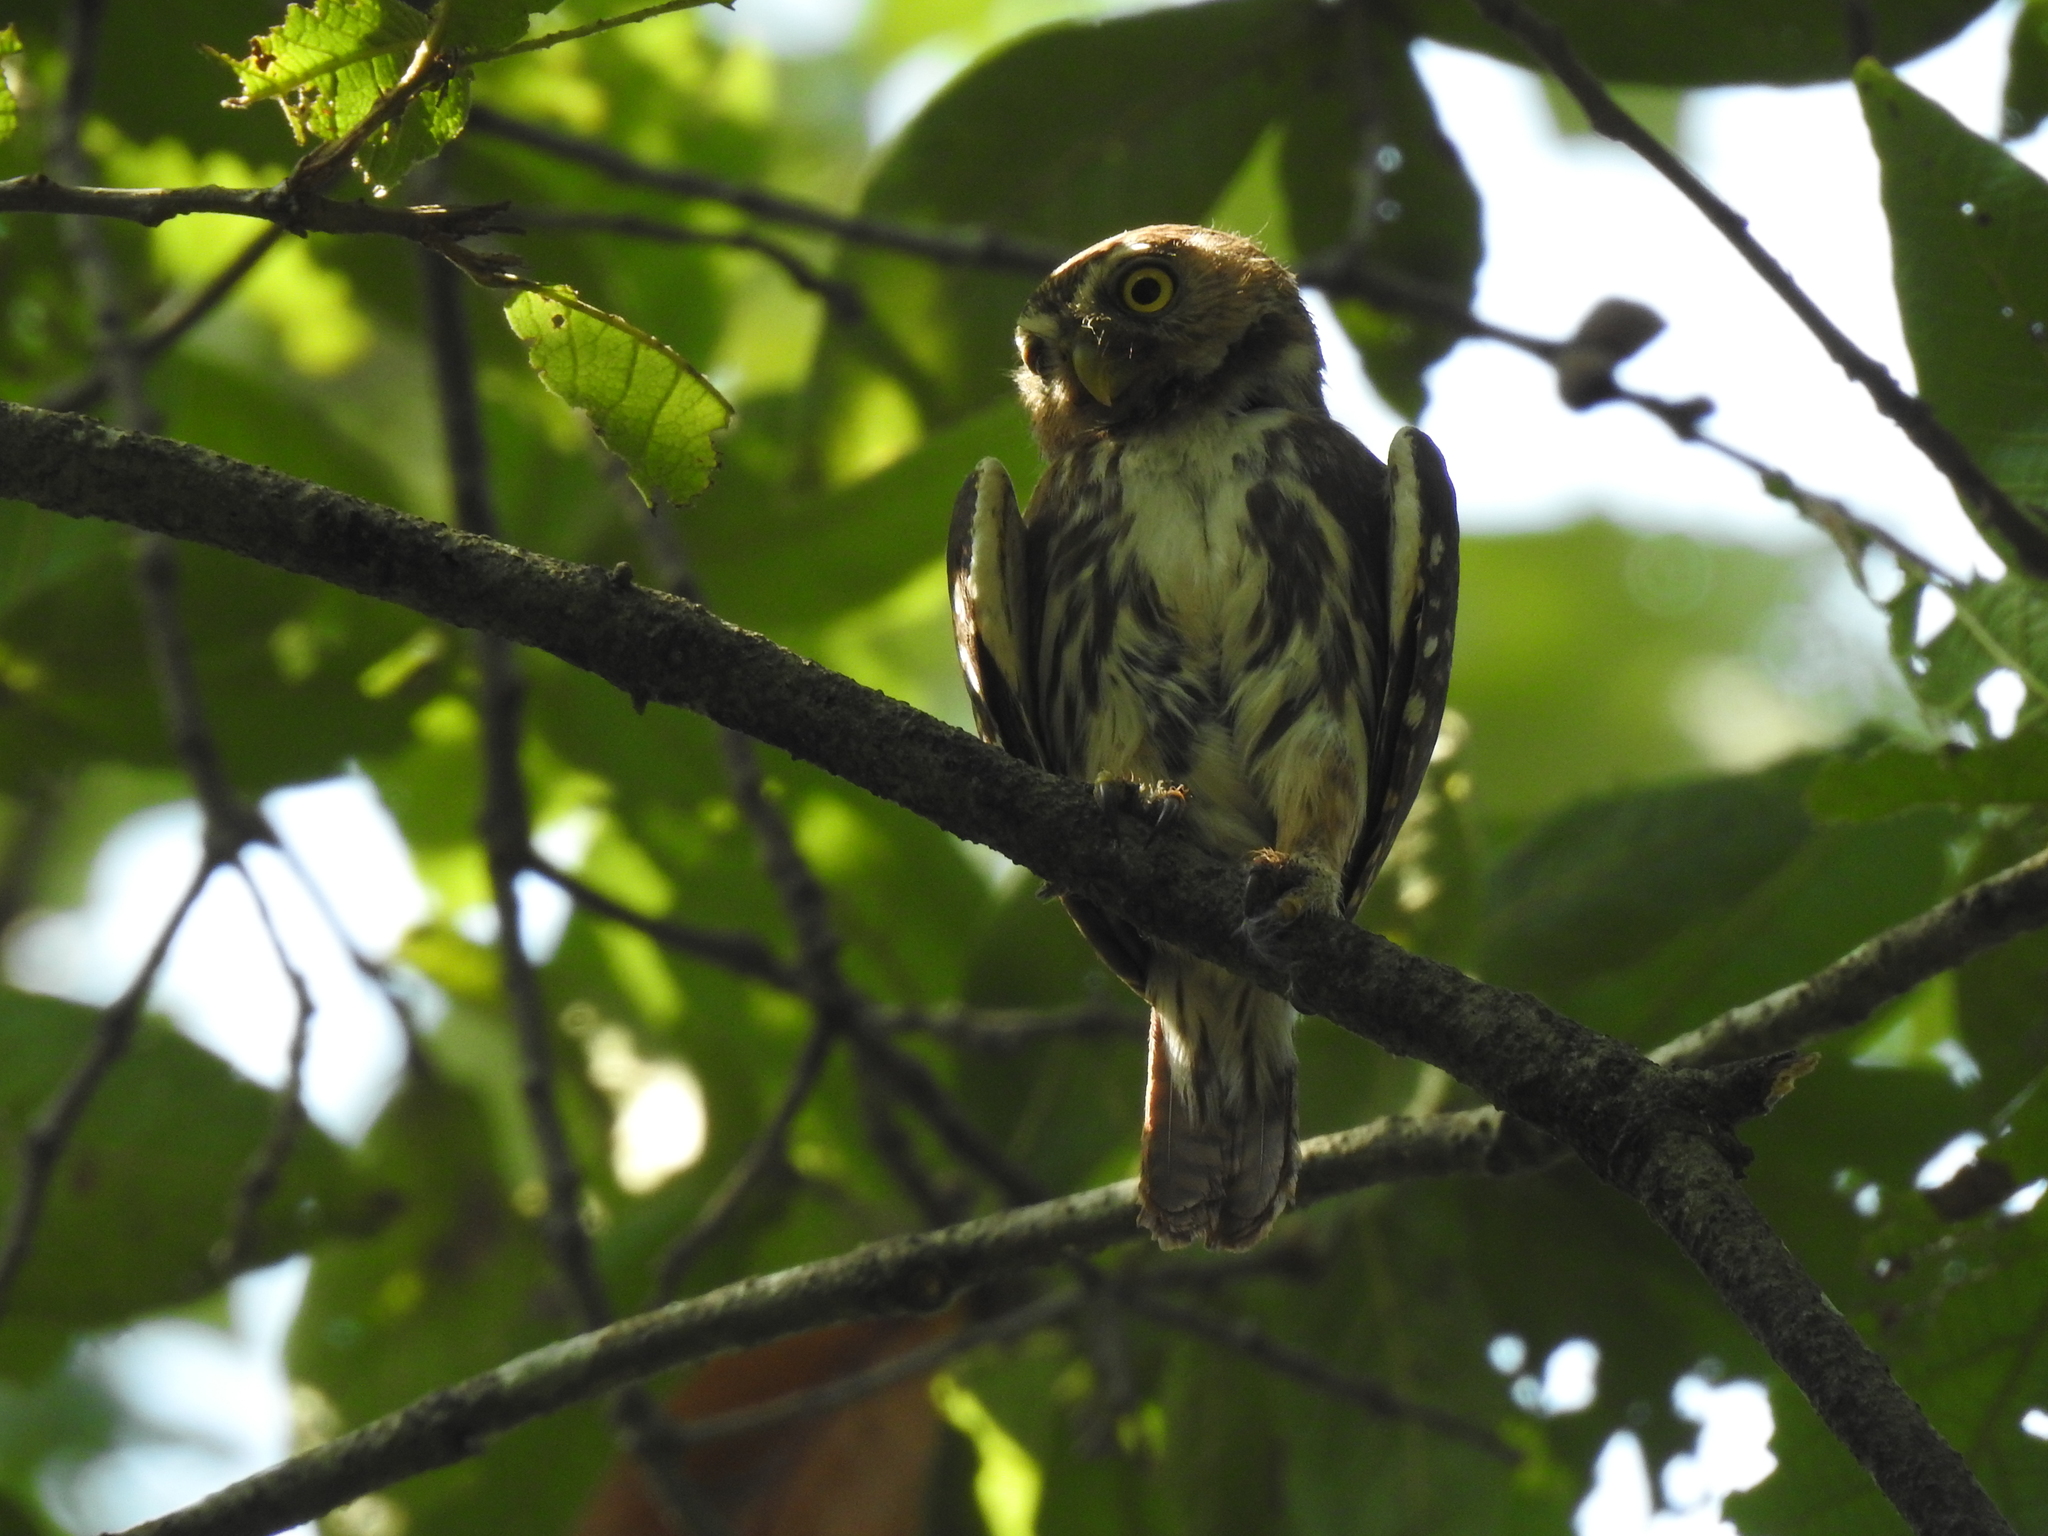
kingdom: Animalia
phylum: Chordata
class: Aves
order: Strigiformes
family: Strigidae
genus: Glaucidium
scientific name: Glaucidium brasilianum
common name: Ferruginous pygmy-owl
